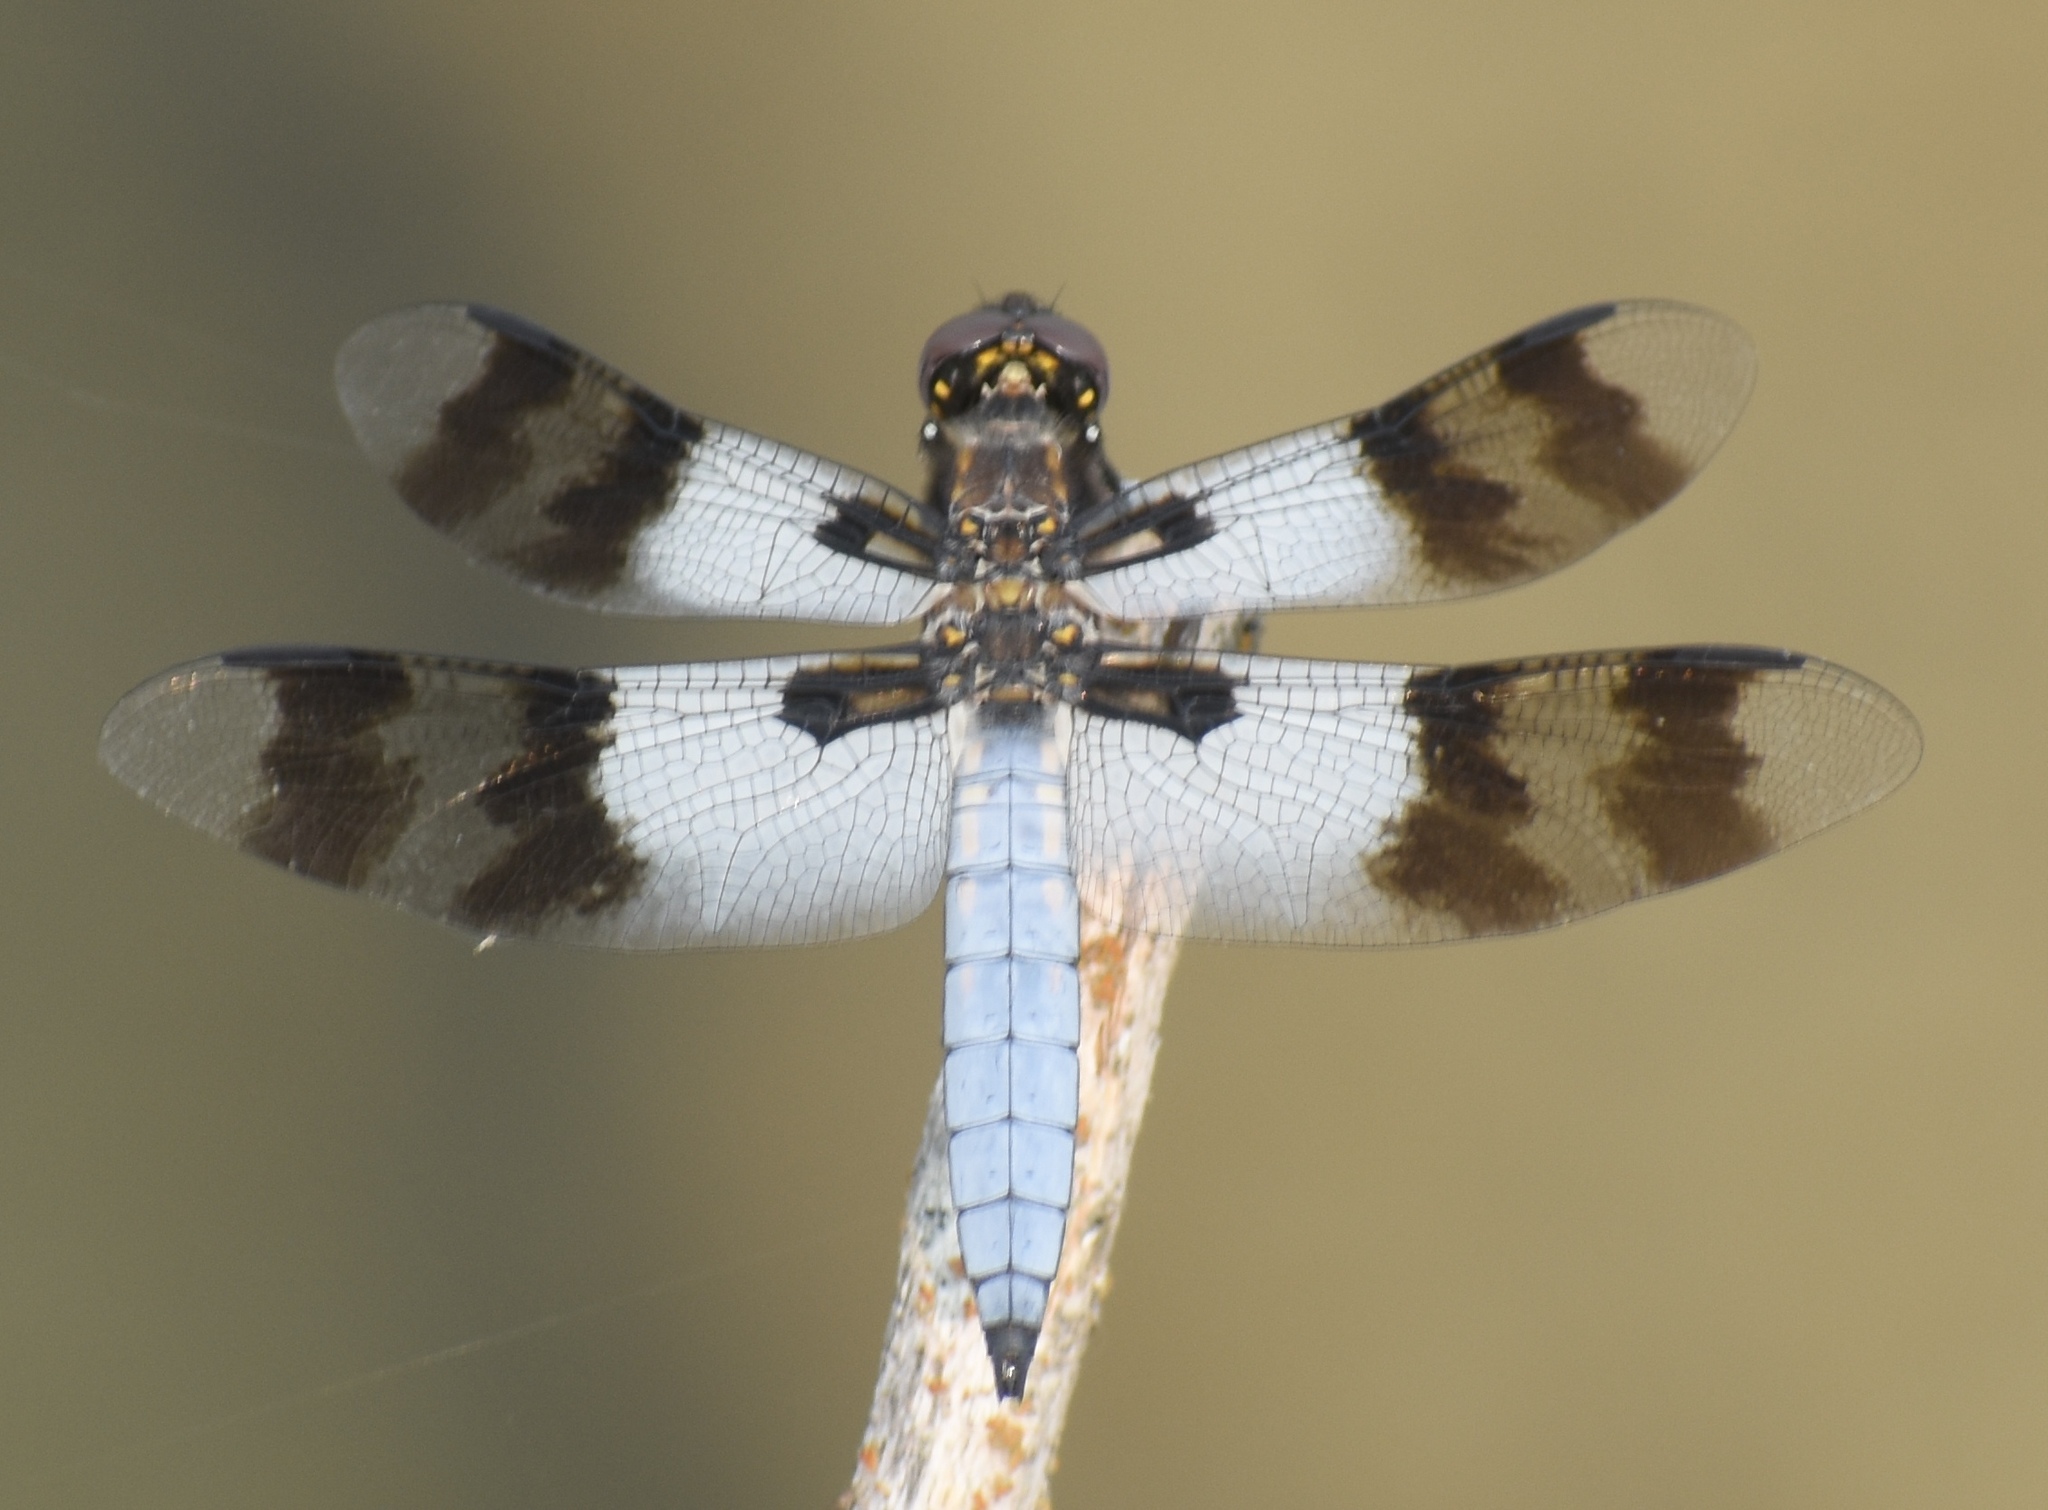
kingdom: Animalia
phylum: Arthropoda
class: Insecta
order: Odonata
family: Libellulidae
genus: Plathemis
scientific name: Plathemis subornata
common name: Desert whitetail
